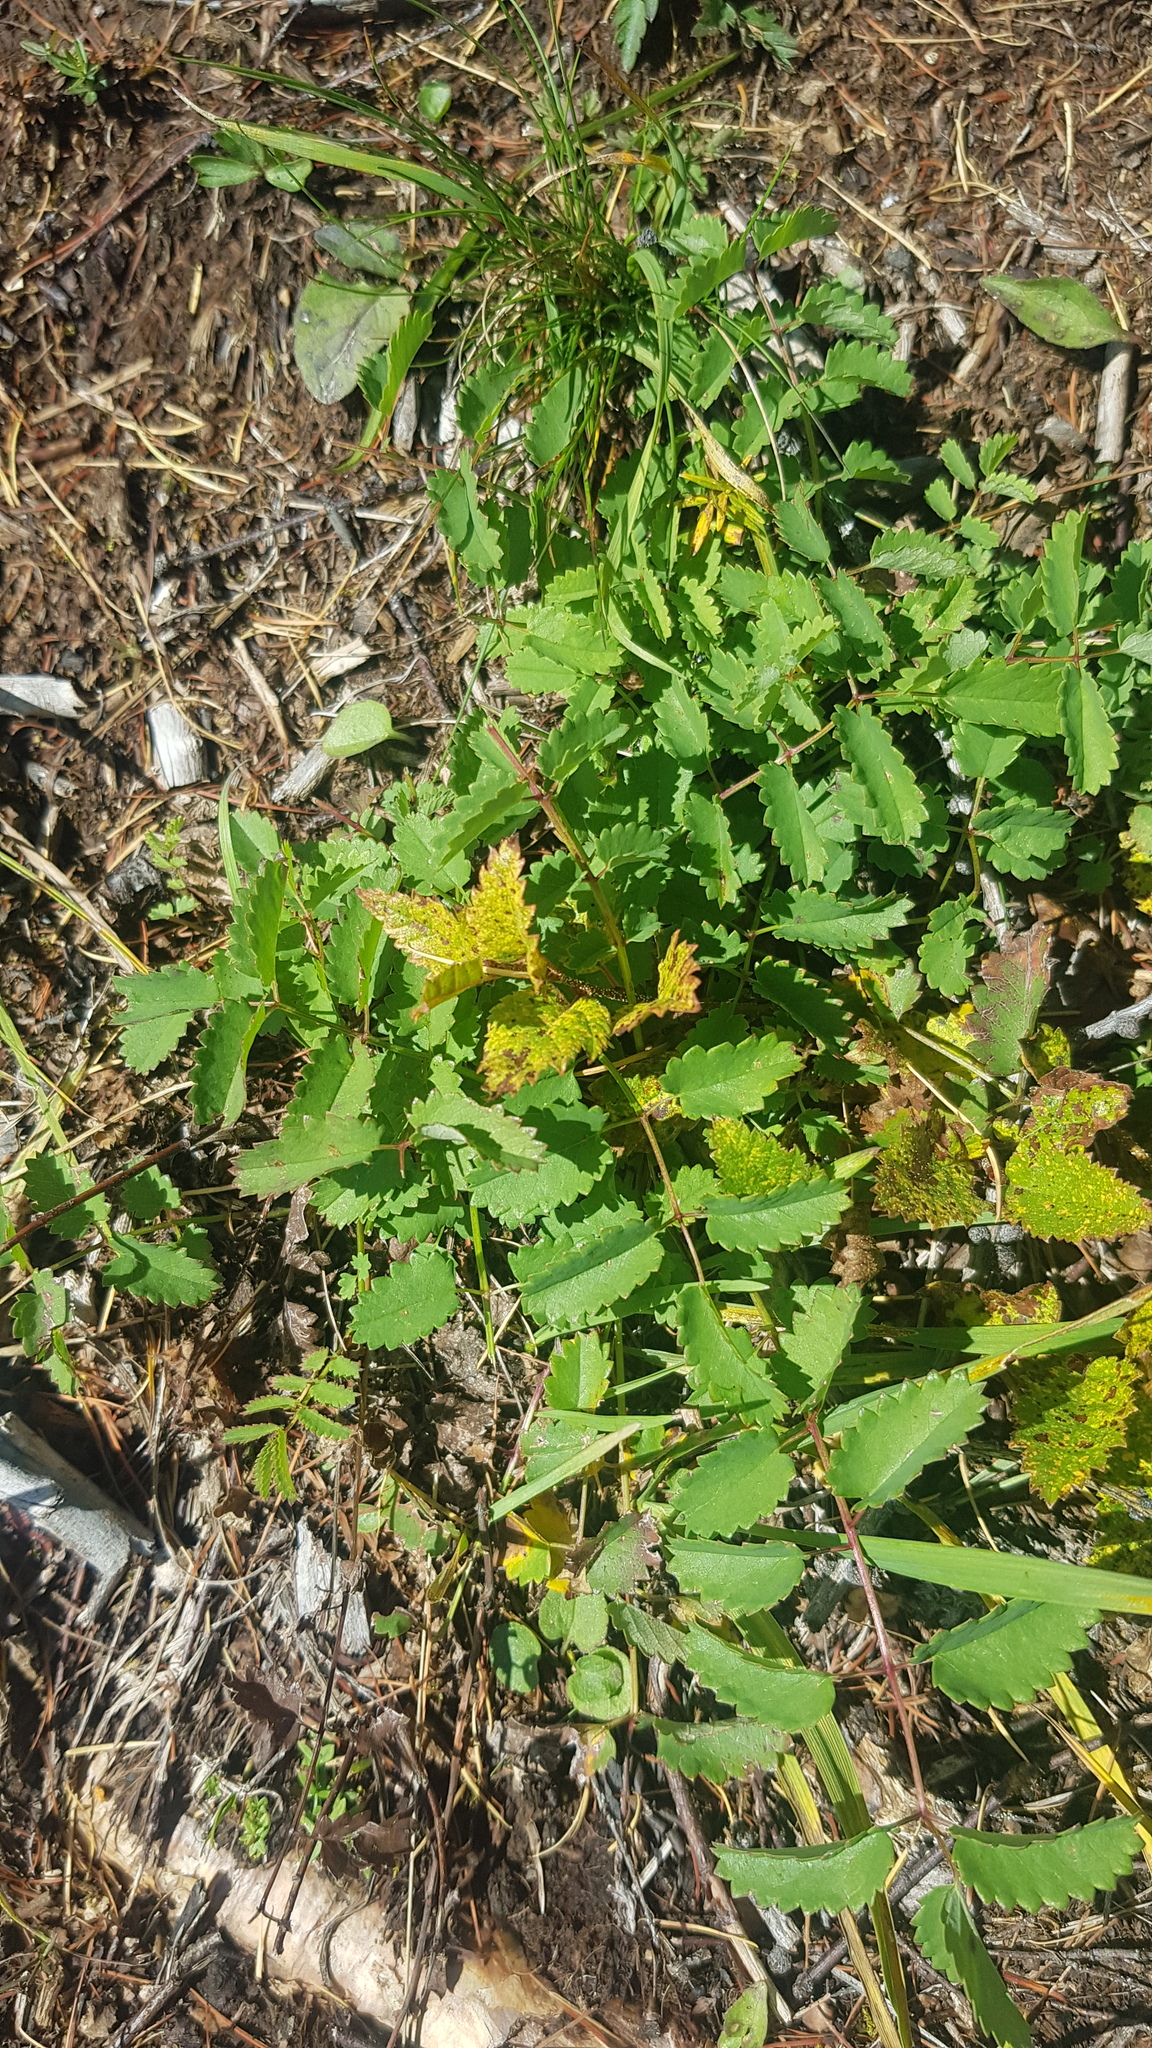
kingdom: Plantae
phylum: Tracheophyta
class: Magnoliopsida
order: Rosales
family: Rosaceae
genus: Sanguisorba
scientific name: Sanguisorba officinalis
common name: Great burnet
